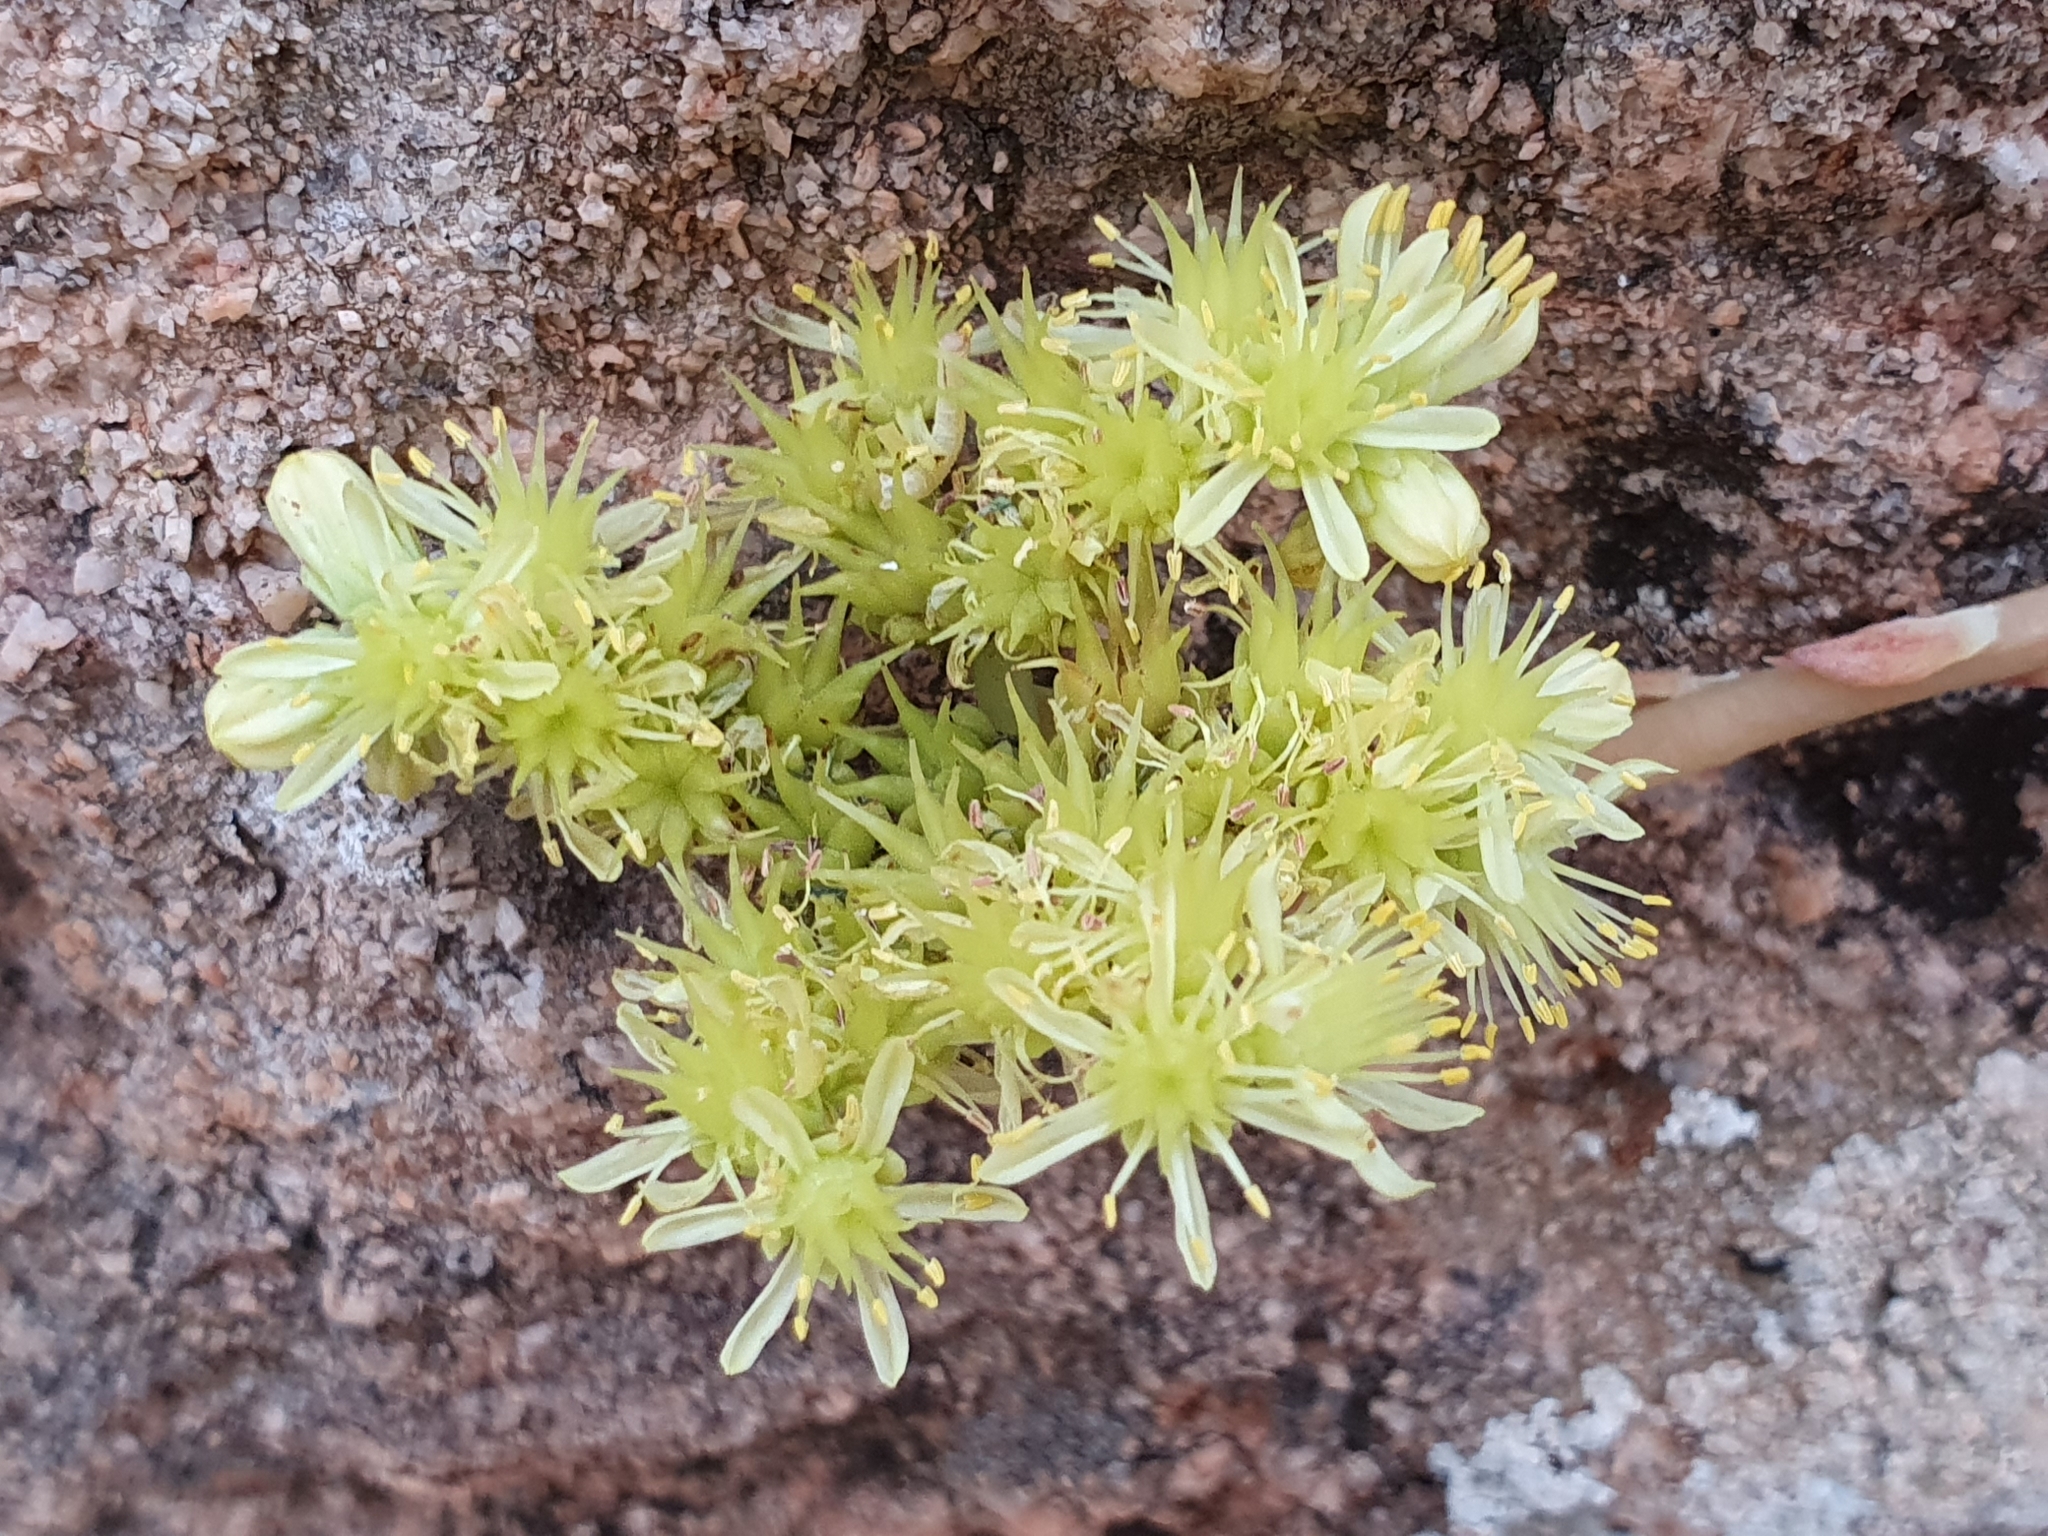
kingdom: Plantae
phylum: Tracheophyta
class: Magnoliopsida
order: Saxifragales
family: Crassulaceae
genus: Petrosedum
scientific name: Petrosedum sediforme
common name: Pale stonecrop
